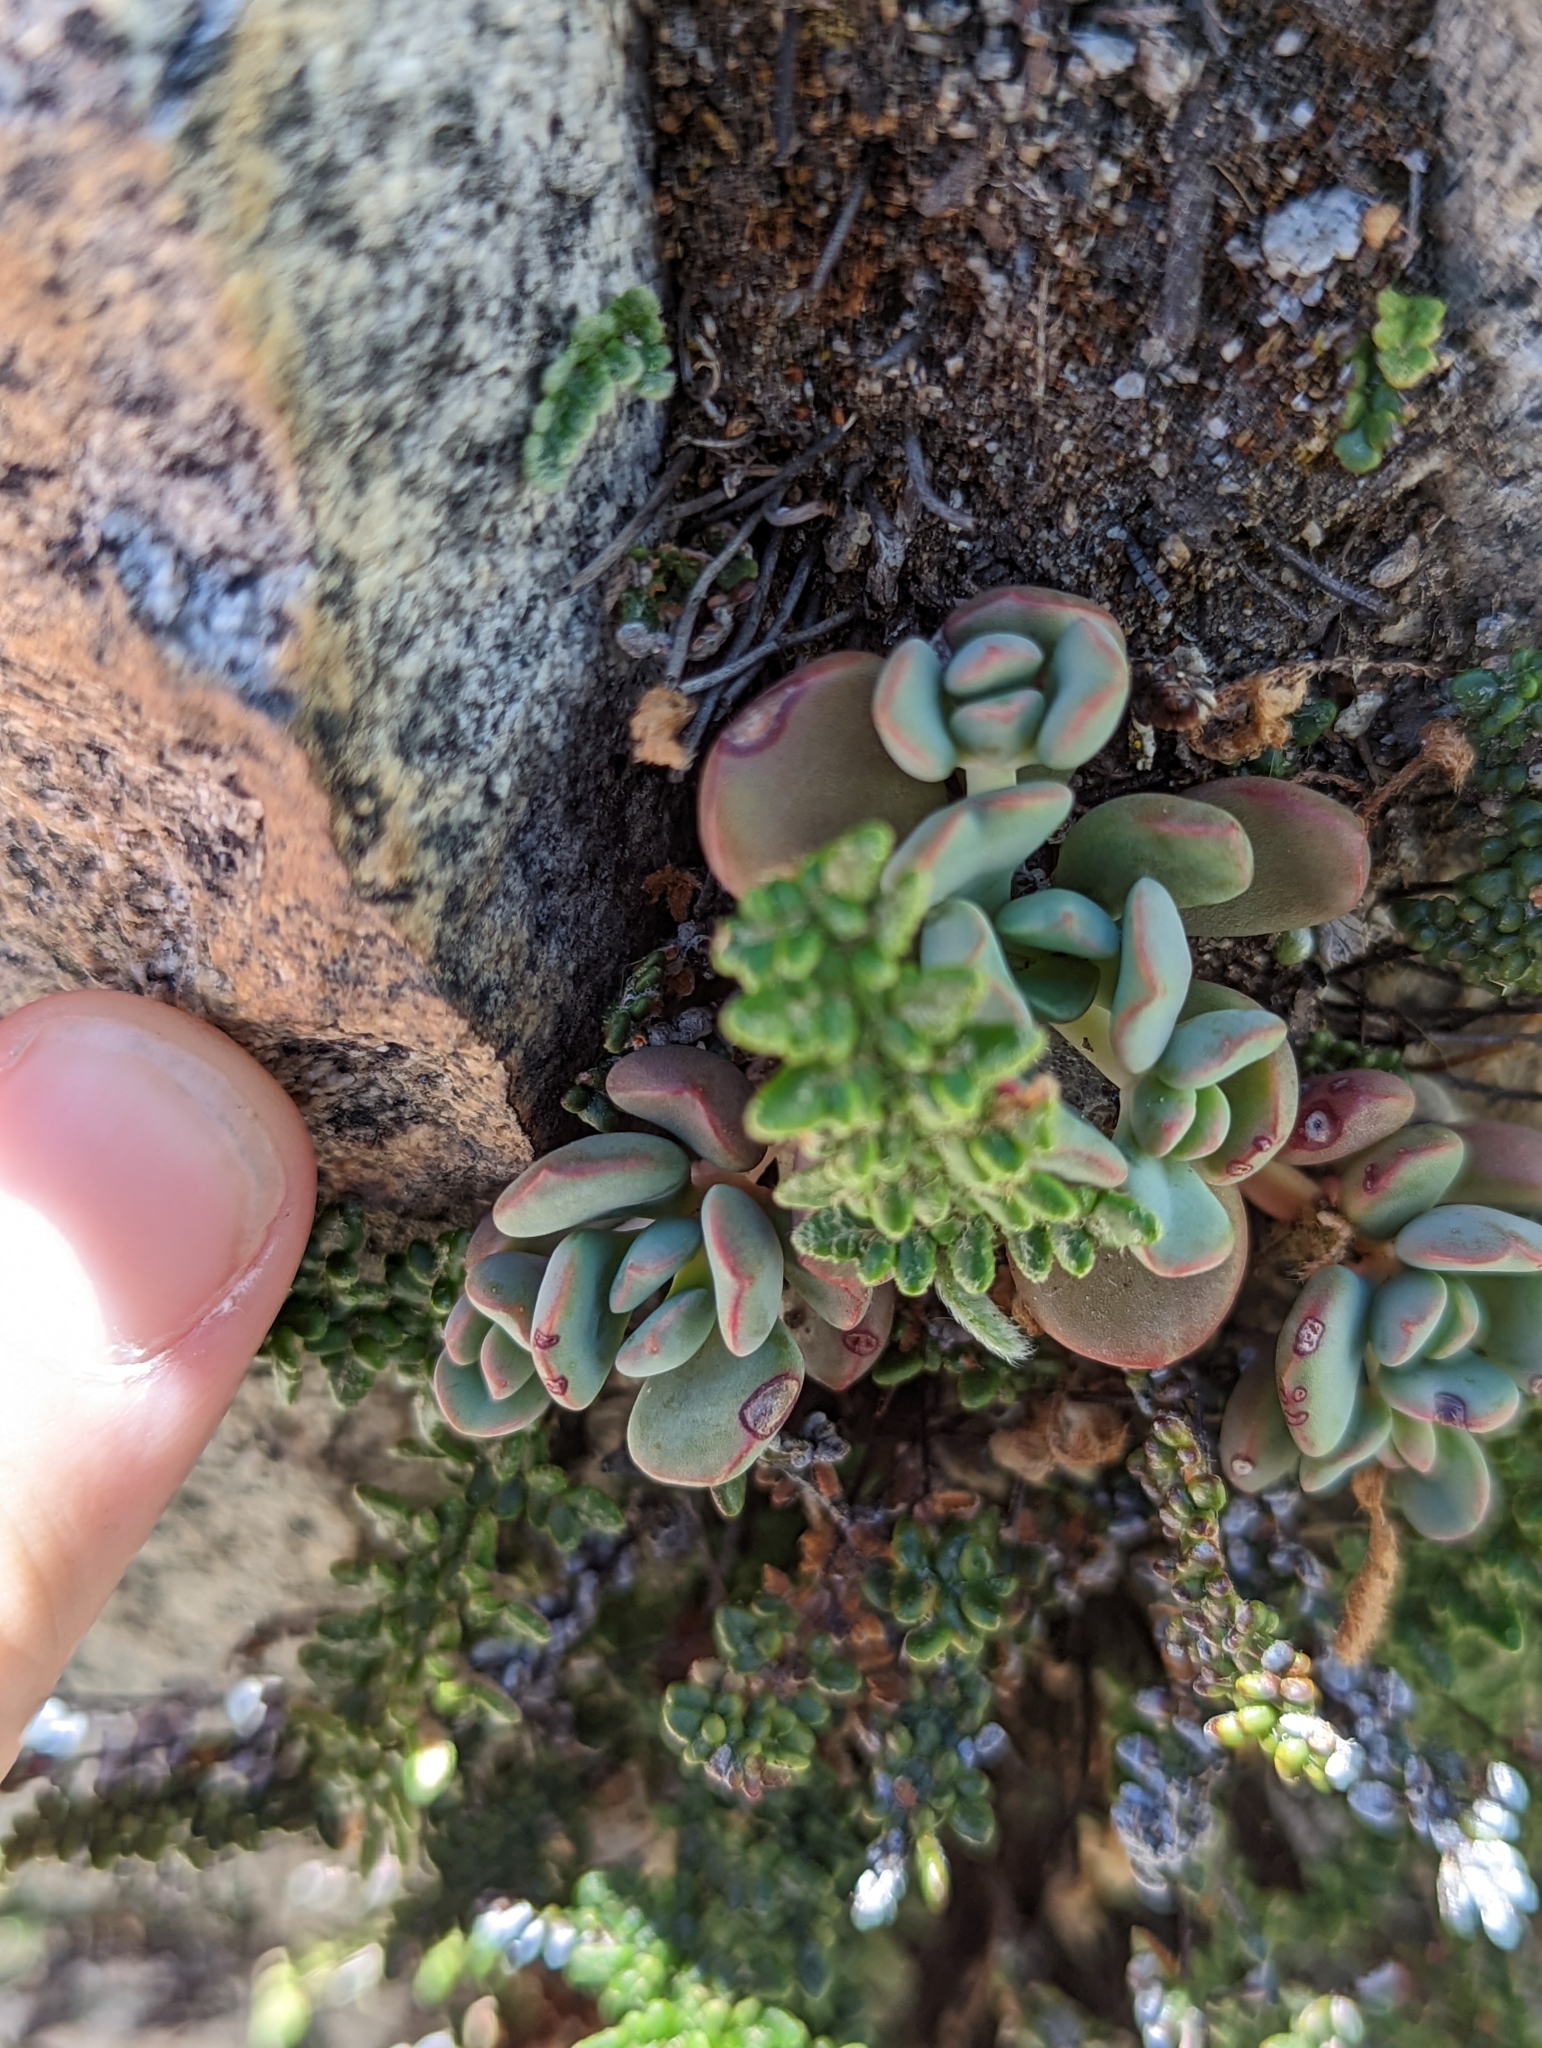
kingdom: Plantae
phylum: Tracheophyta
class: Magnoliopsida
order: Saxifragales
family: Crassulaceae
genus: Sedum
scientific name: Sedum obtusatum
